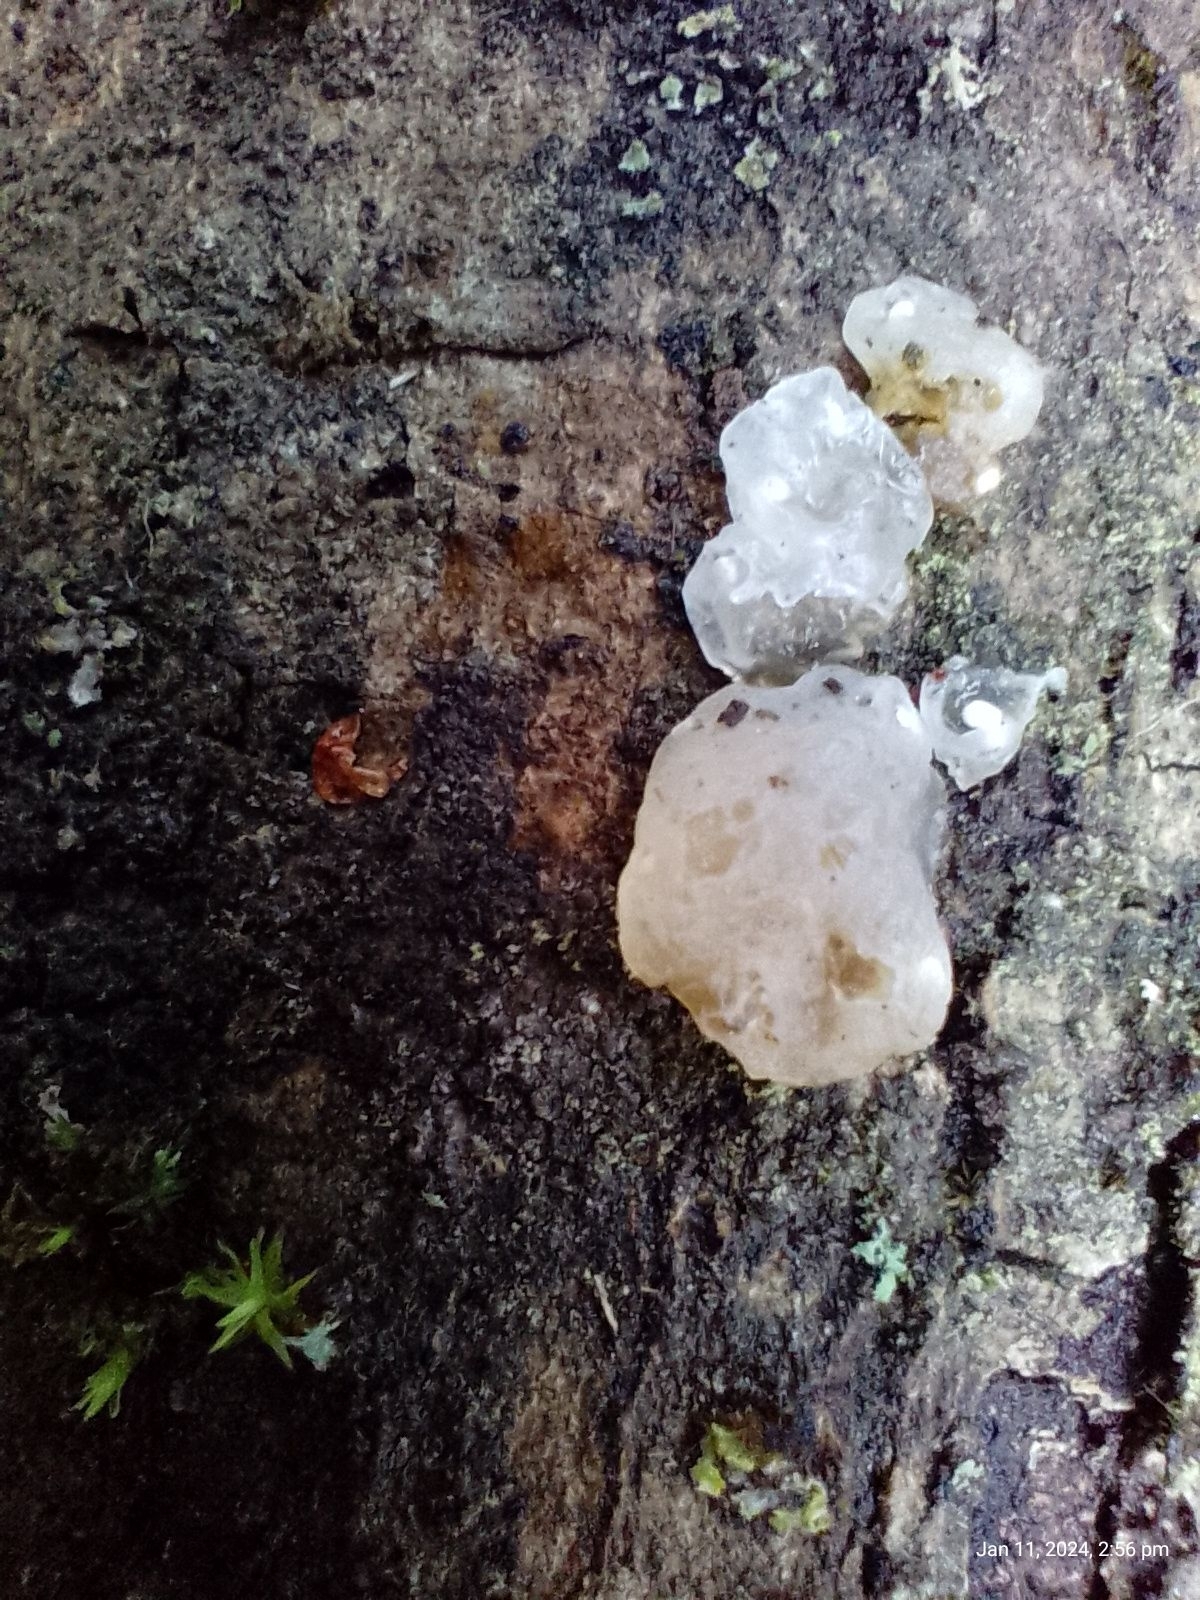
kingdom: Fungi
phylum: Basidiomycota
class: Agaricomycetes
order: Auriculariales
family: Hyaloriaceae
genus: Myxarium
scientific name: Myxarium nucleatum
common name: Crystal brain fungus
